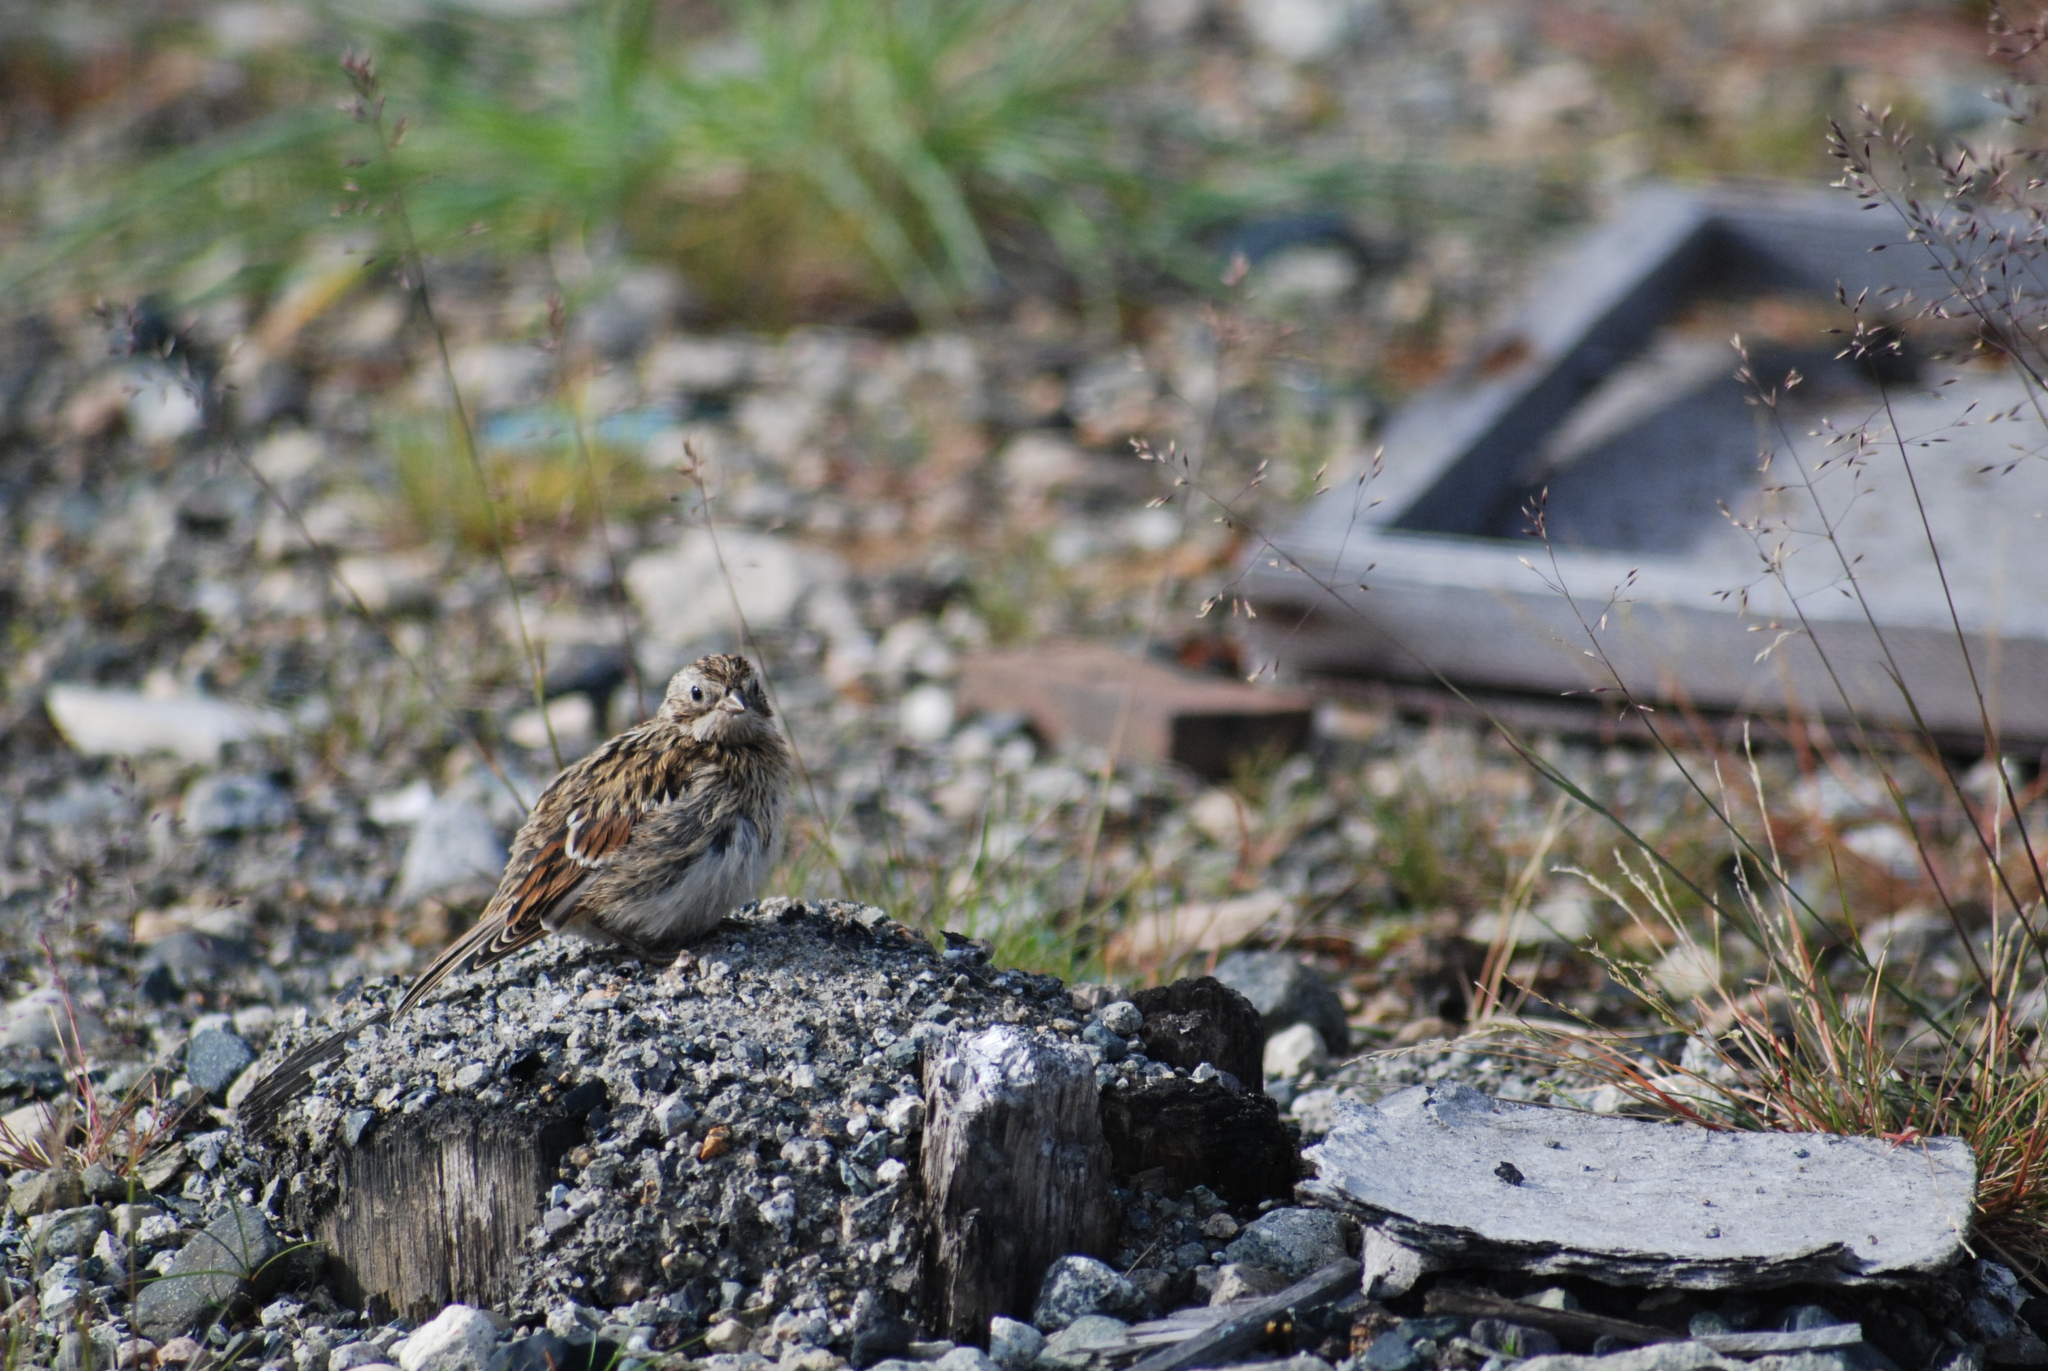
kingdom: Animalia
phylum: Chordata
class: Aves
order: Passeriformes
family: Calcariidae
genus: Calcarius
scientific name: Calcarius lapponicus
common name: Lapland longspur
